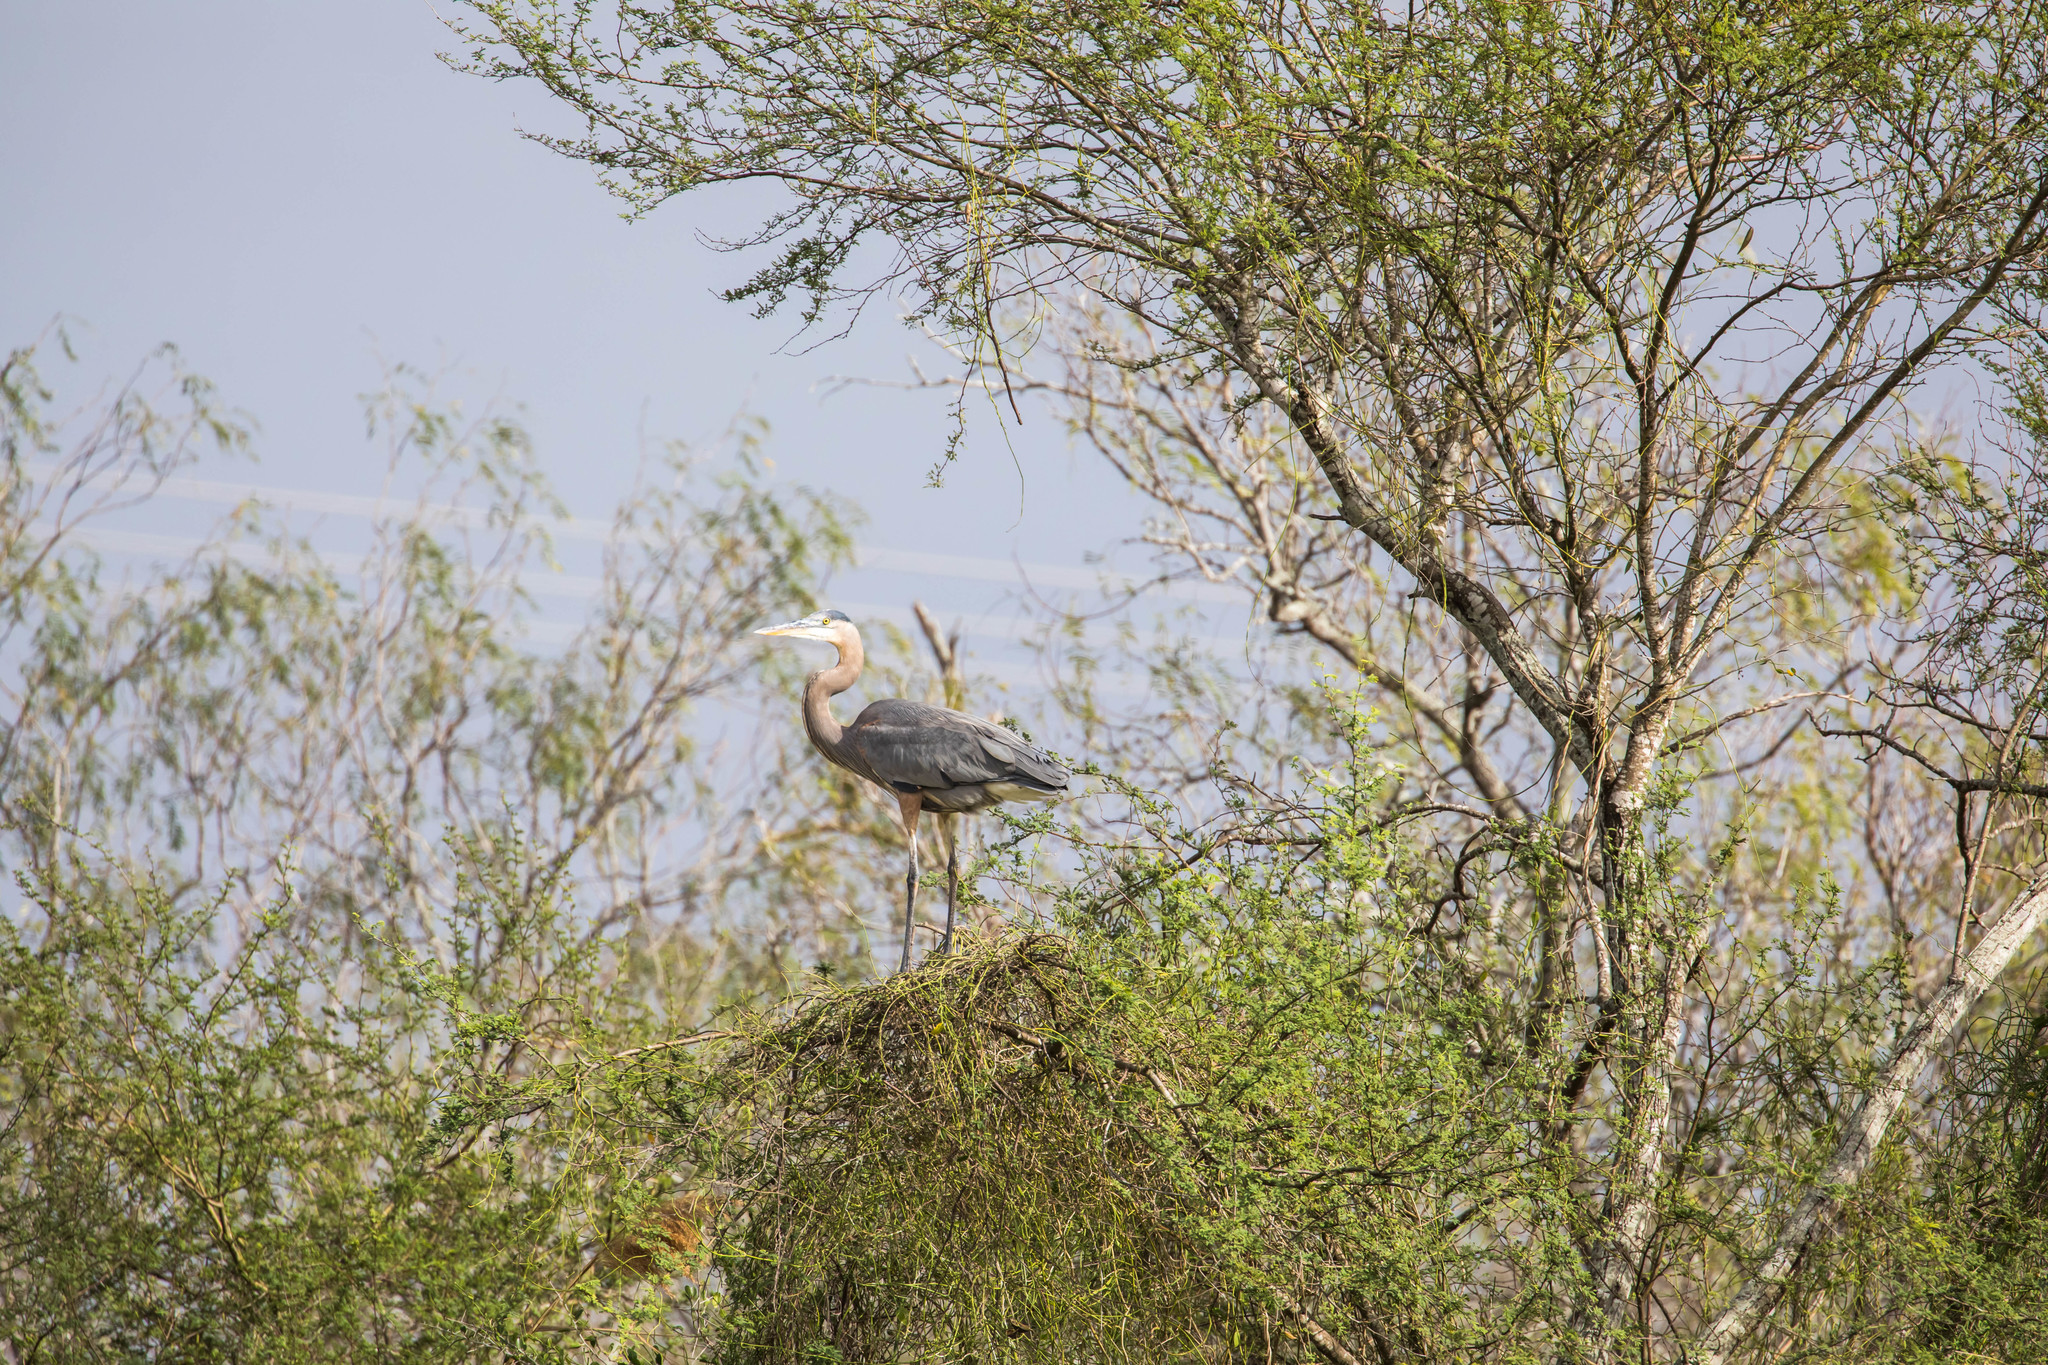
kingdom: Animalia
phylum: Chordata
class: Aves
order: Pelecaniformes
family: Ardeidae
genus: Ardea
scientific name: Ardea herodias
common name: Great blue heron
